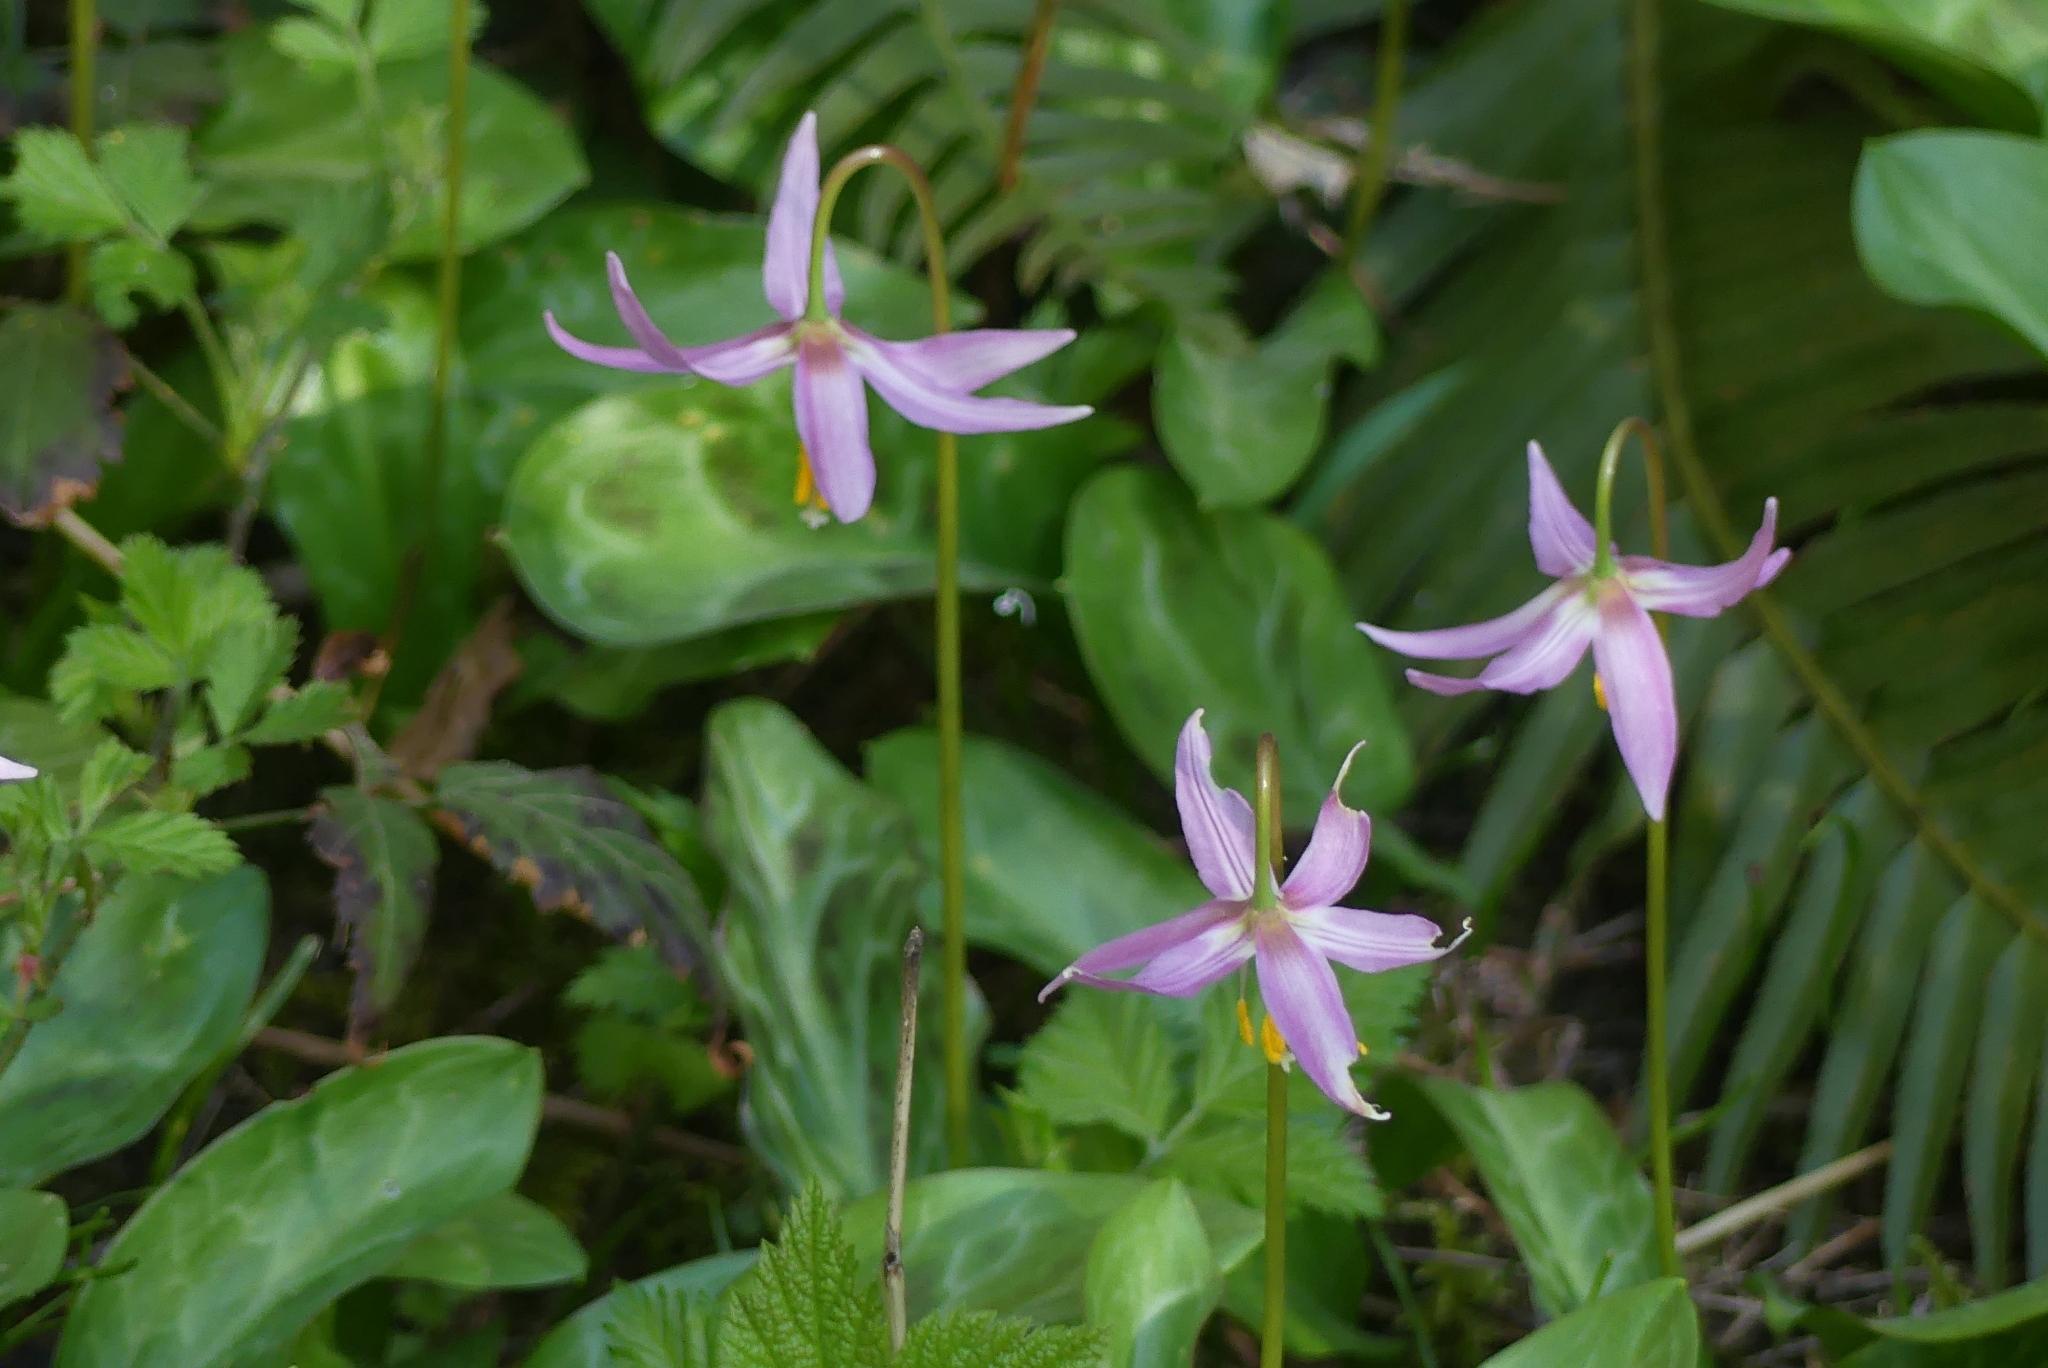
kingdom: Plantae
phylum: Tracheophyta
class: Liliopsida
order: Liliales
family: Liliaceae
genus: Erythronium
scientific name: Erythronium revolutum
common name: Pink fawn-lily
